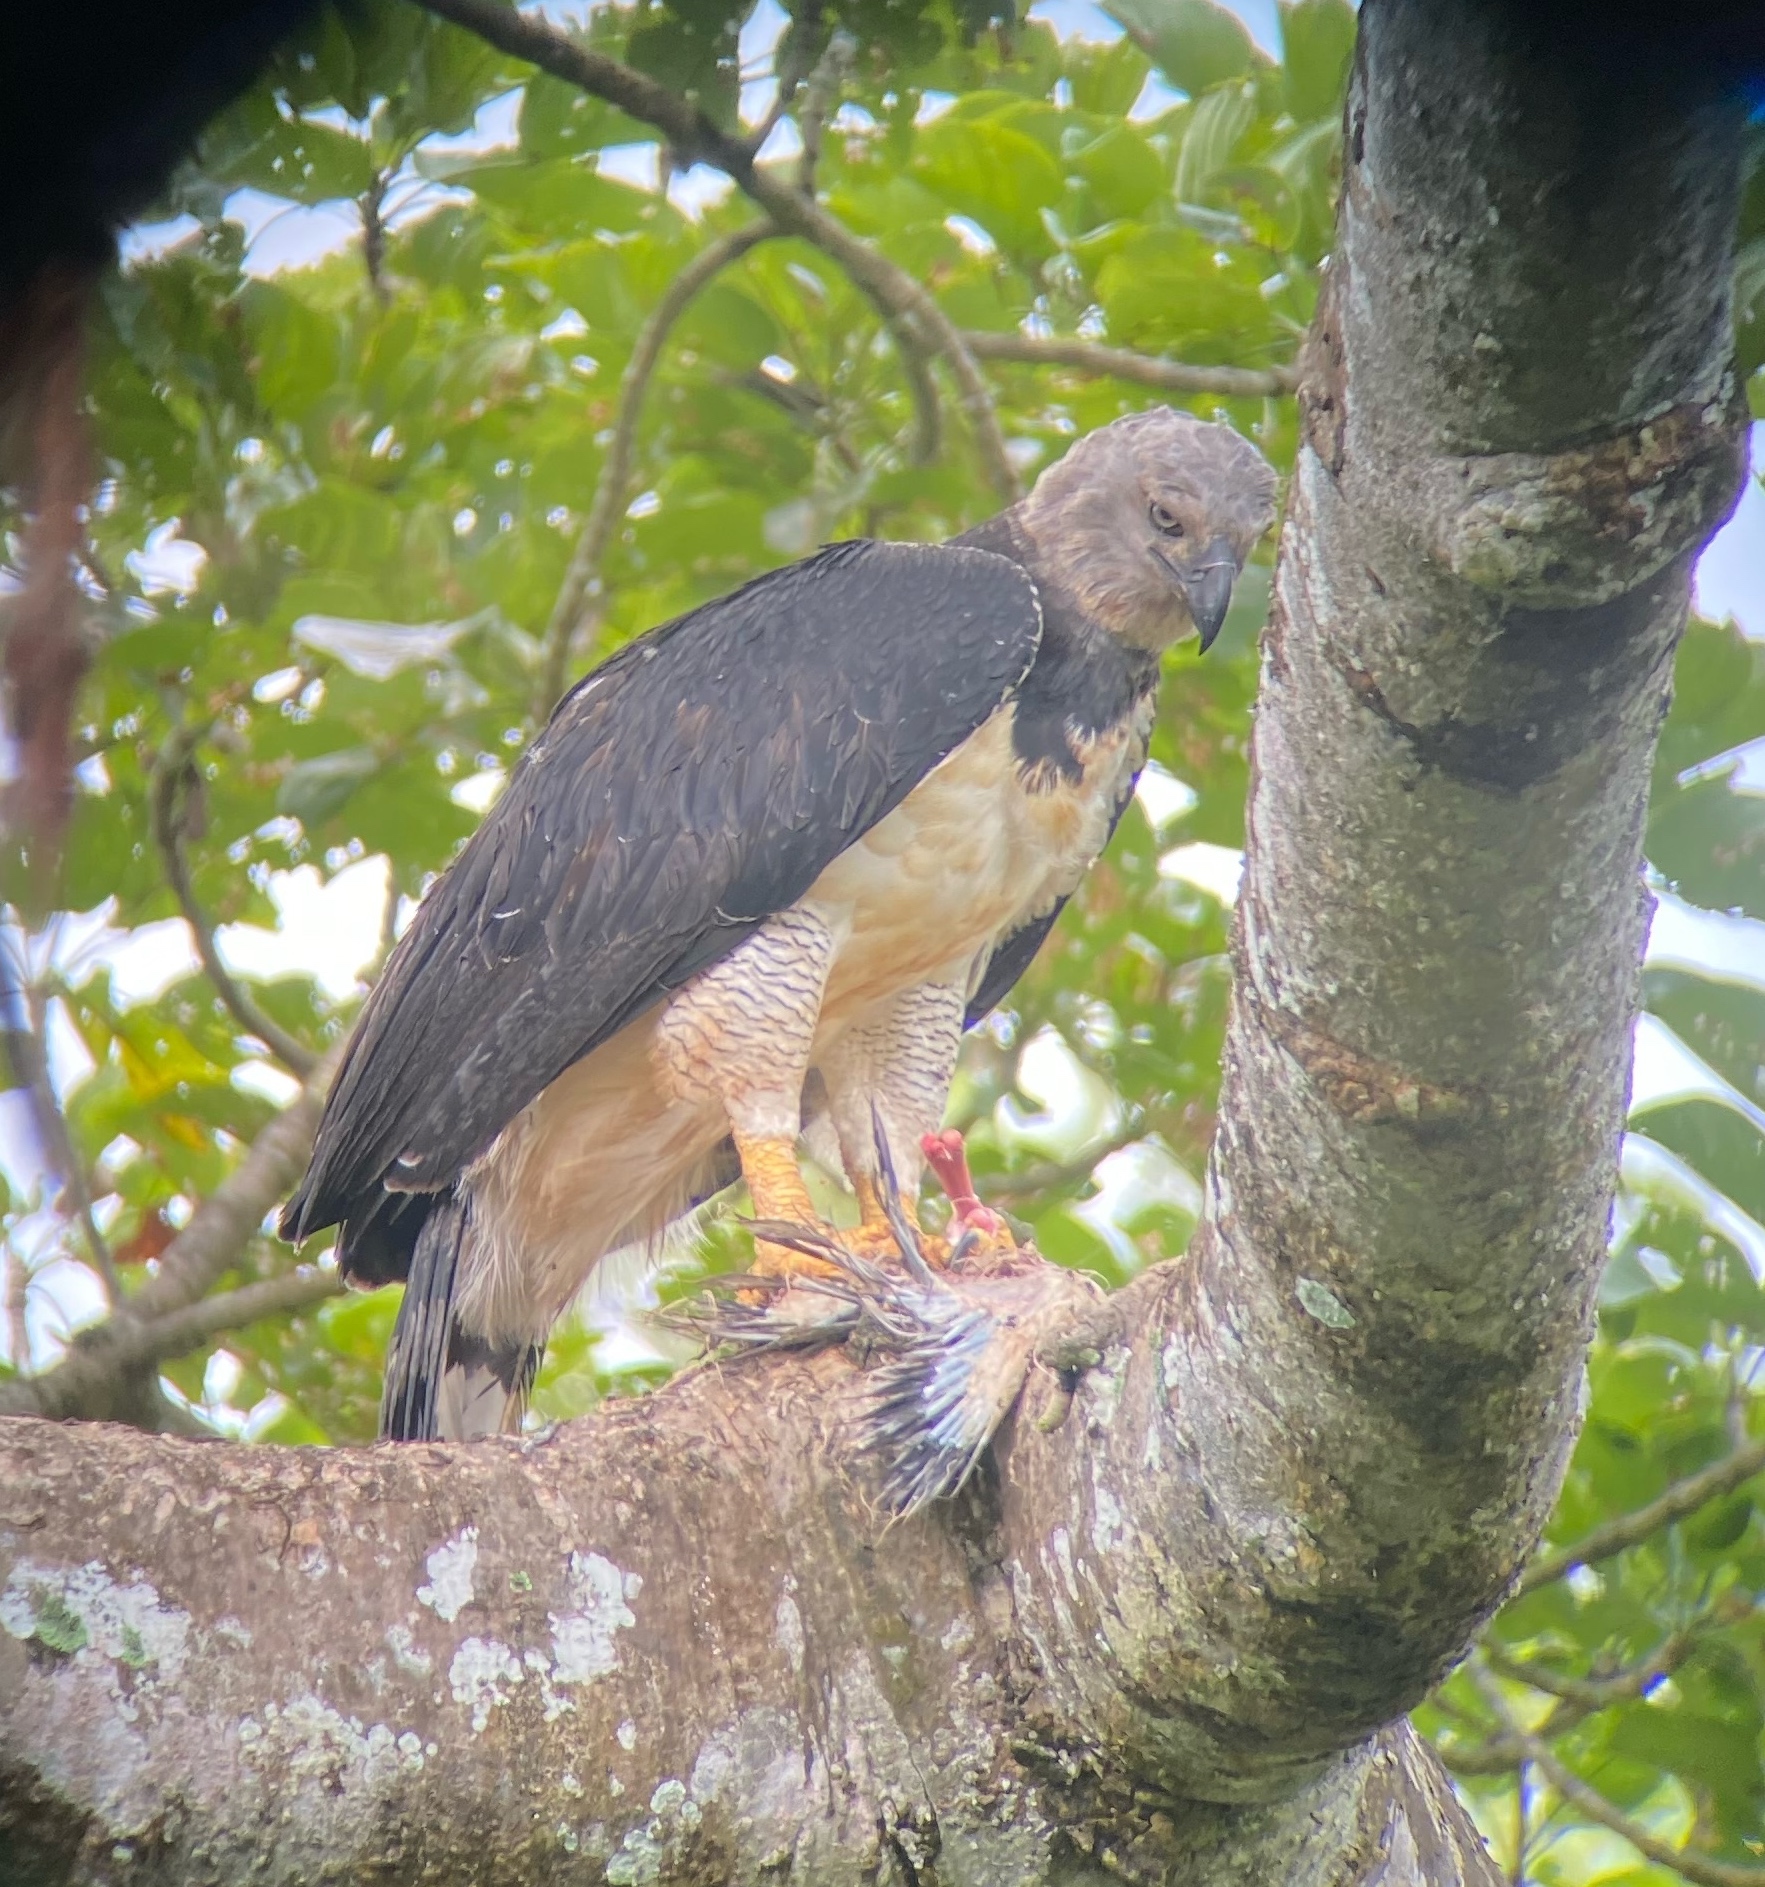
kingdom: Animalia
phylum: Chordata
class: Aves
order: Accipitriformes
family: Accipitridae
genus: Harpia
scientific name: Harpia harpyja
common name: Harpy eagle
